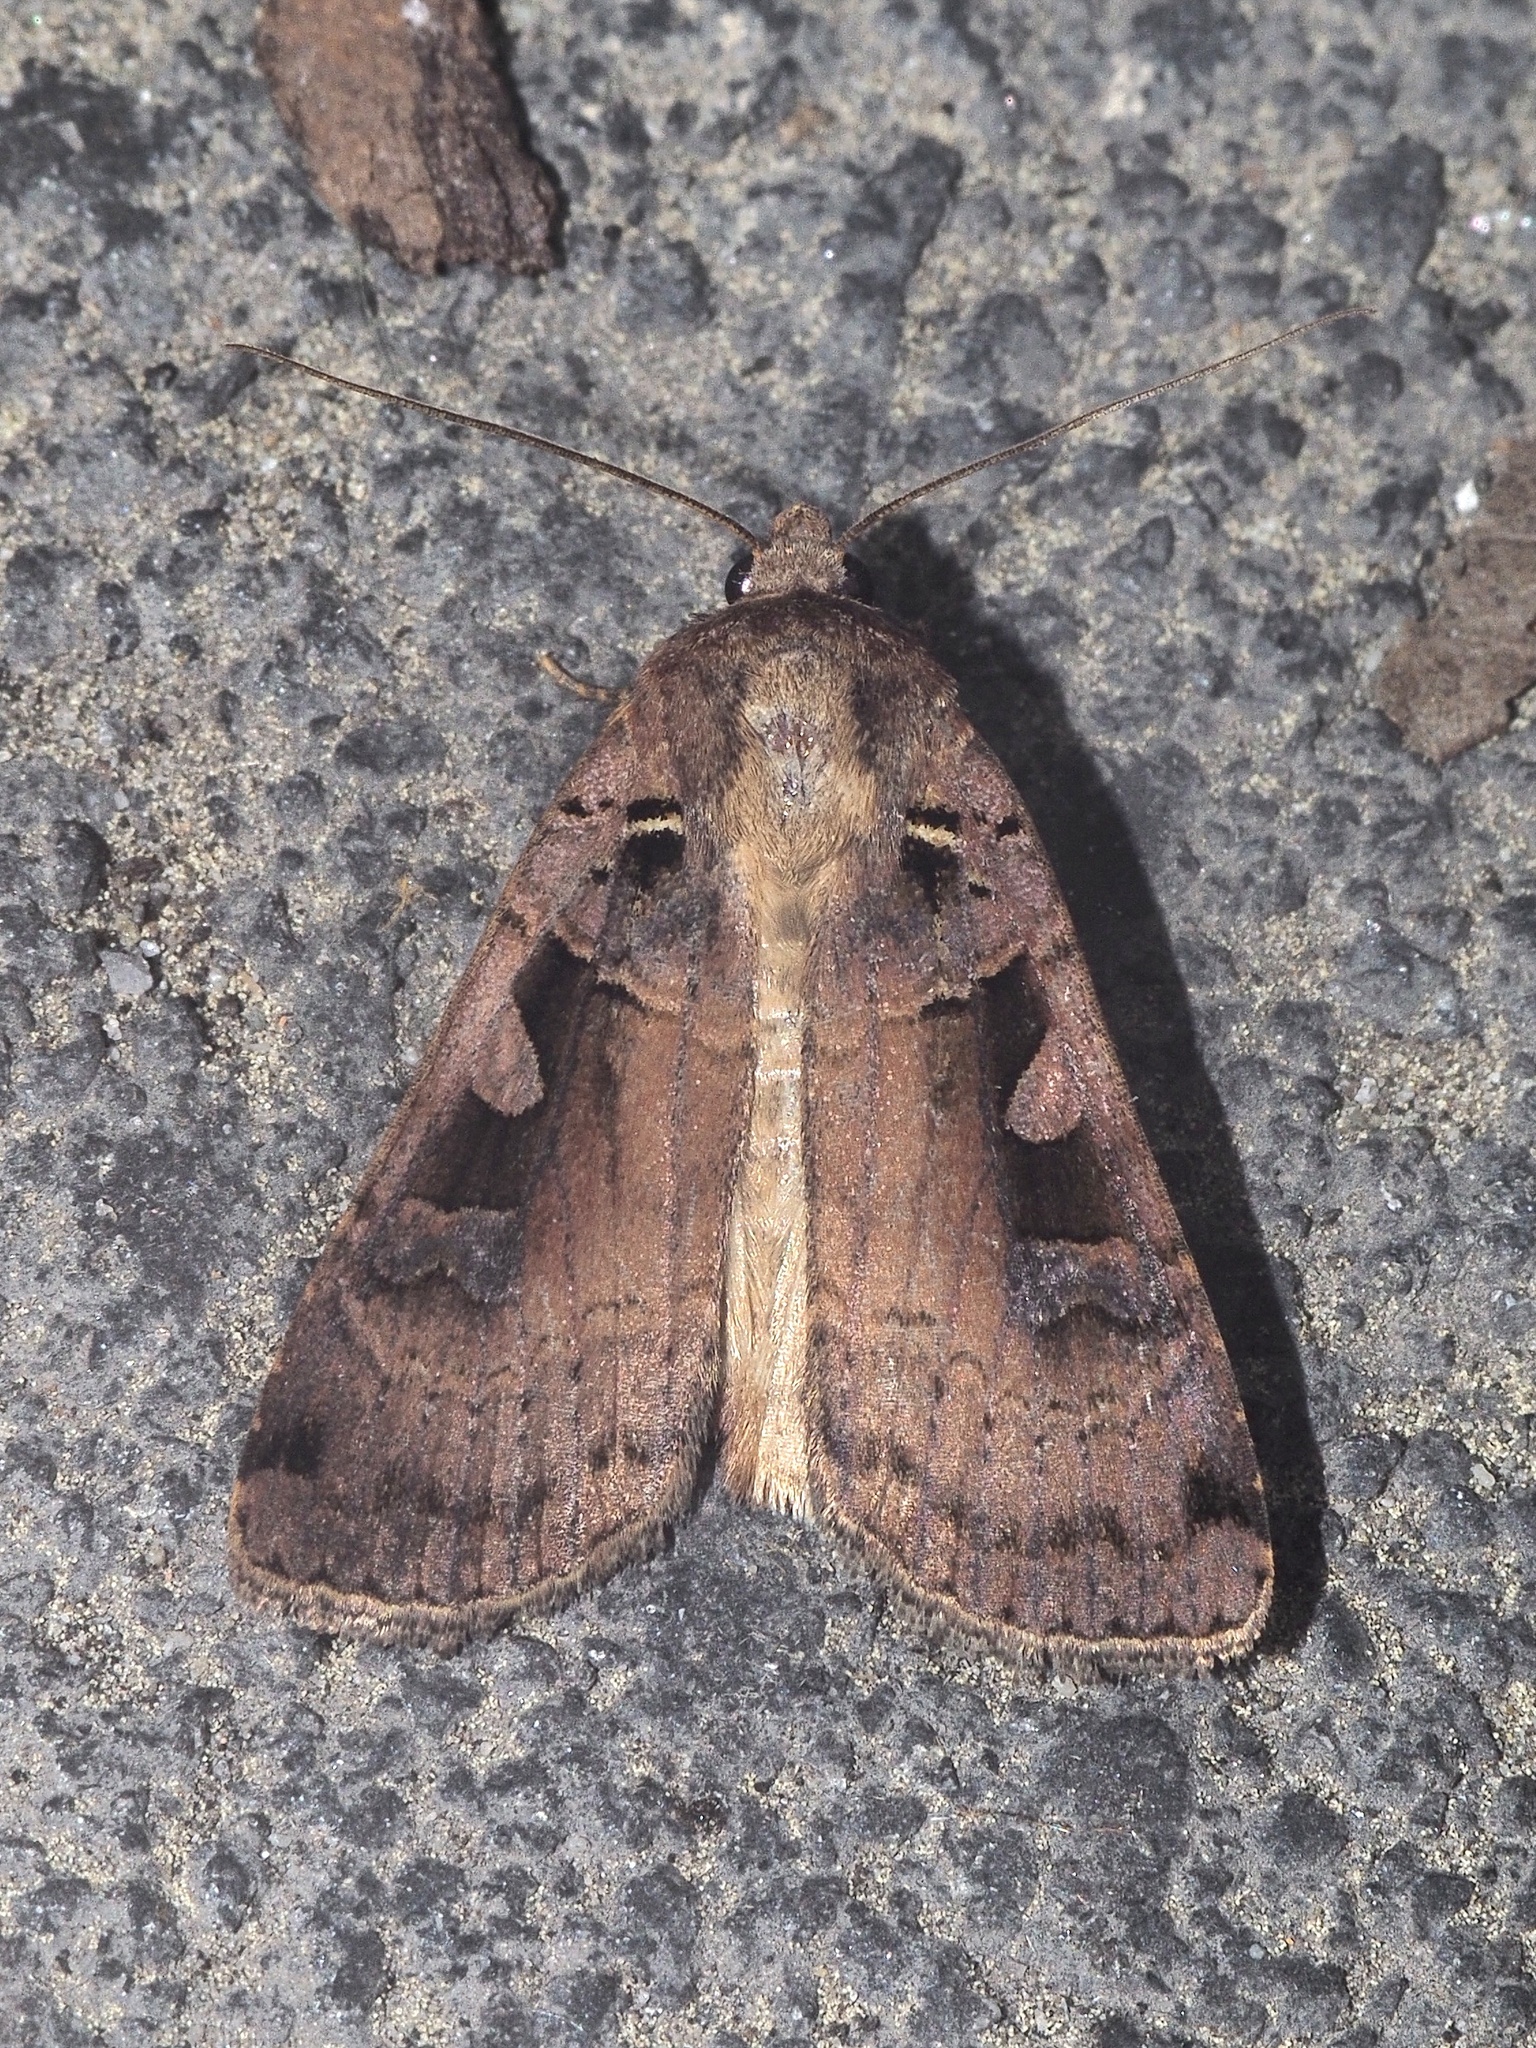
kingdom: Animalia
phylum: Arthropoda
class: Insecta
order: Lepidoptera
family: Noctuidae
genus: Xestia
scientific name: Xestia ditrapezium
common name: Triple-spotted clay
